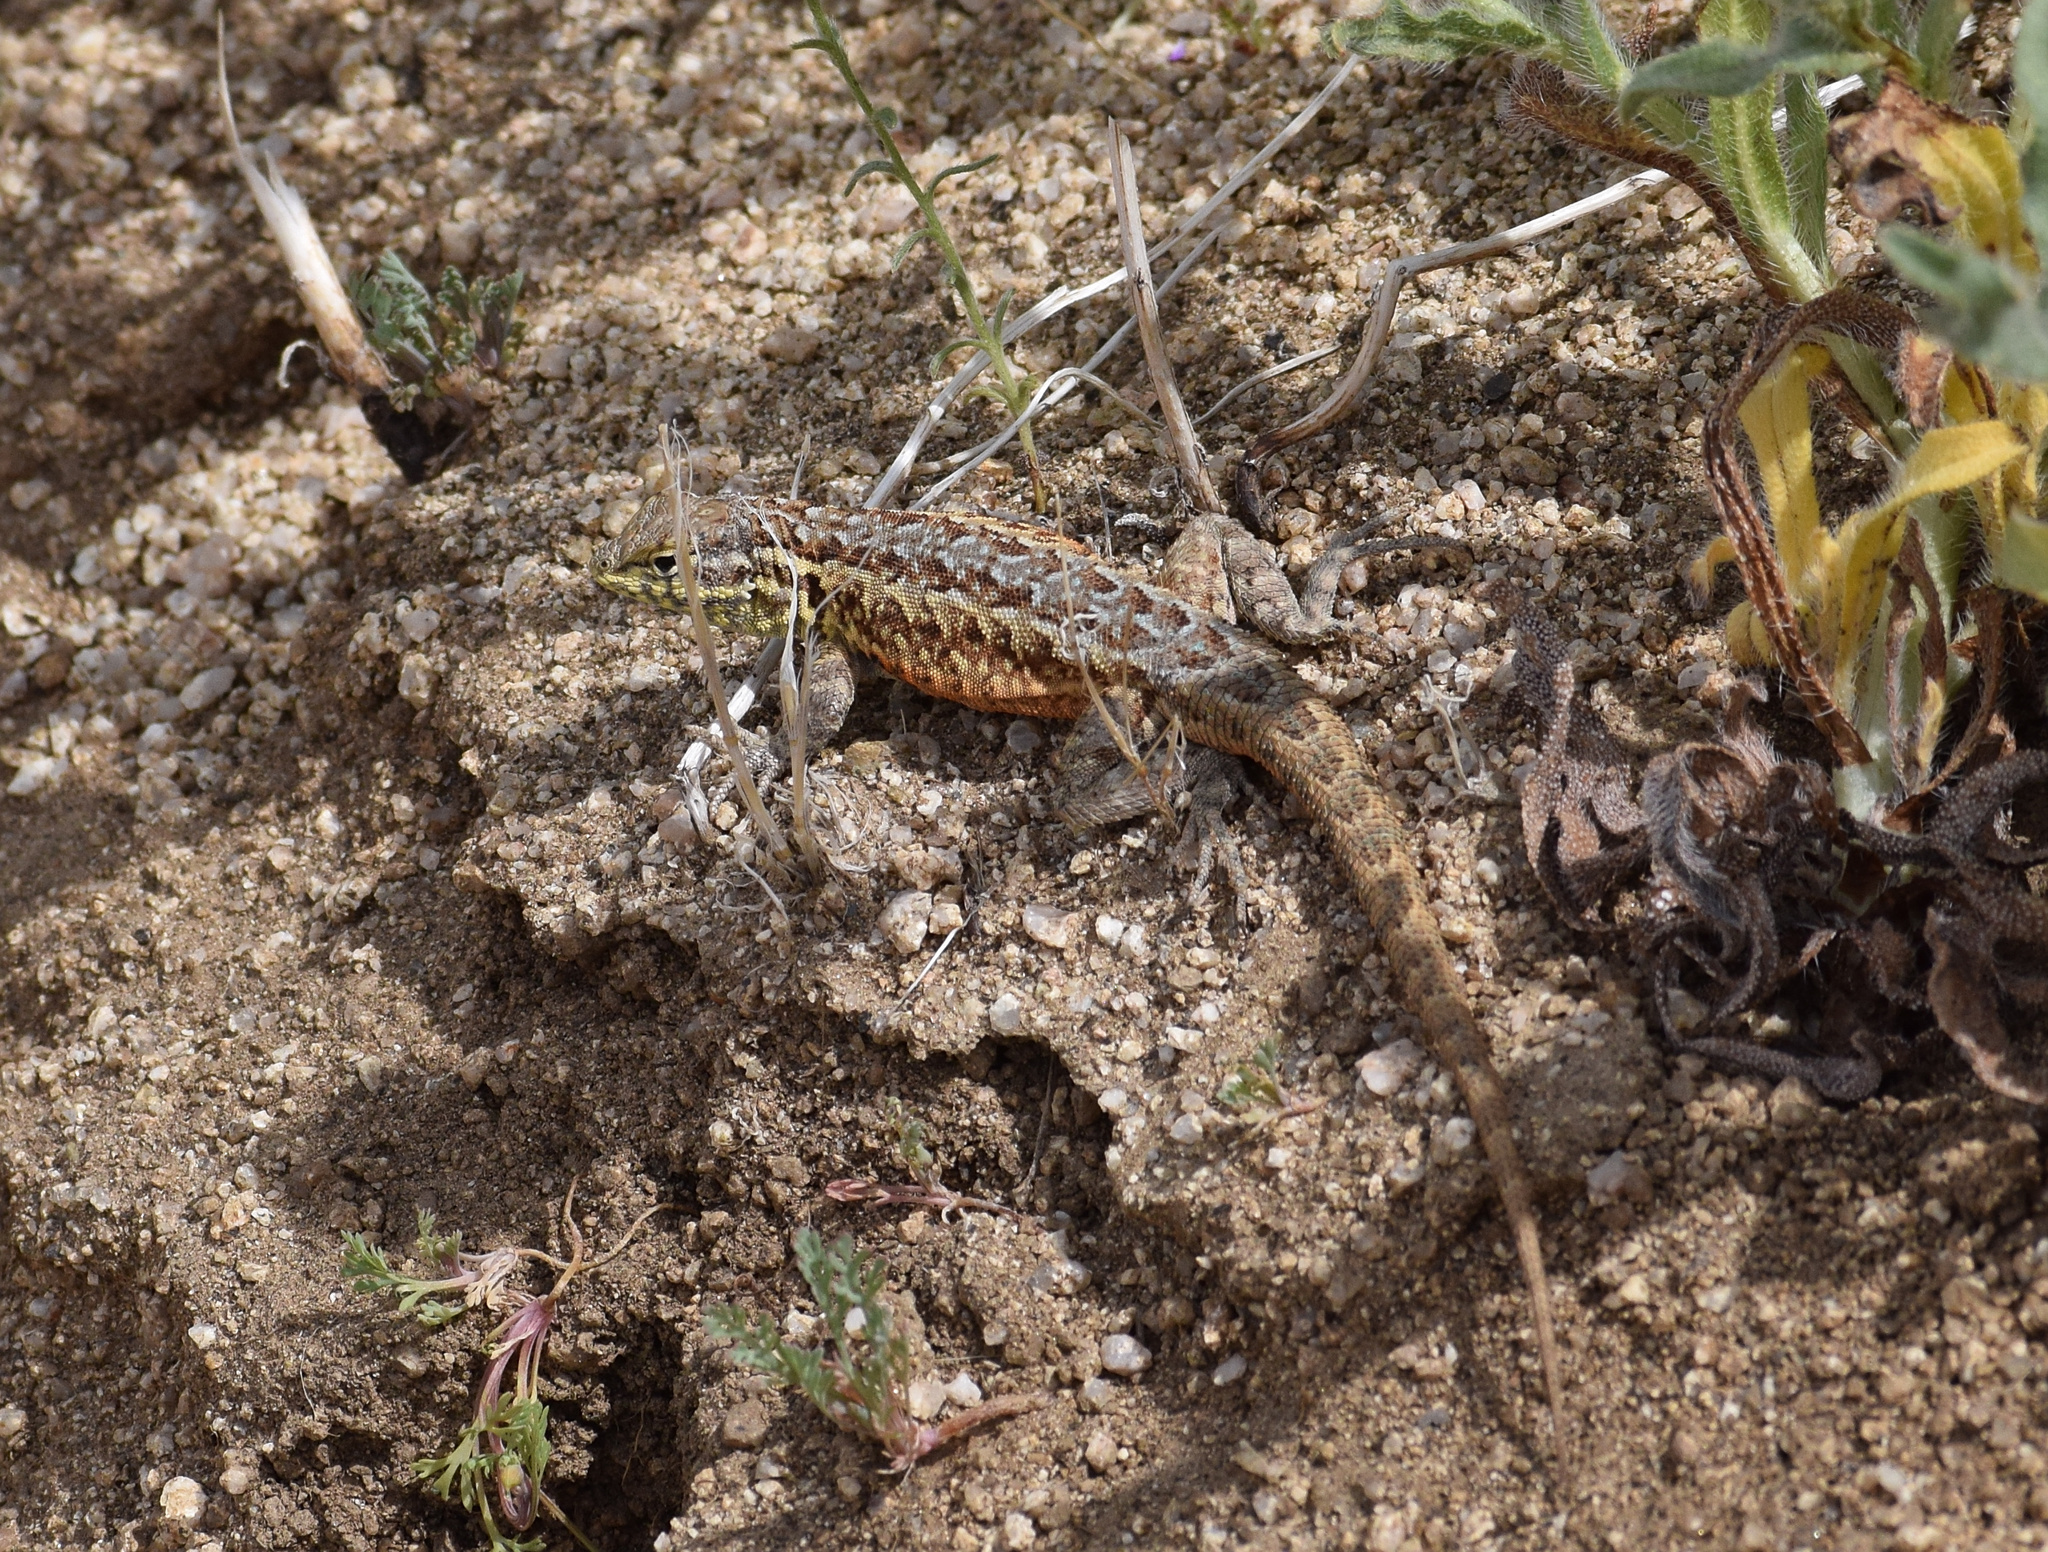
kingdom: Animalia
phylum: Chordata
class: Squamata
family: Phrynosomatidae
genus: Uta
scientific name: Uta stansburiana
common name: Side-blotched lizard
